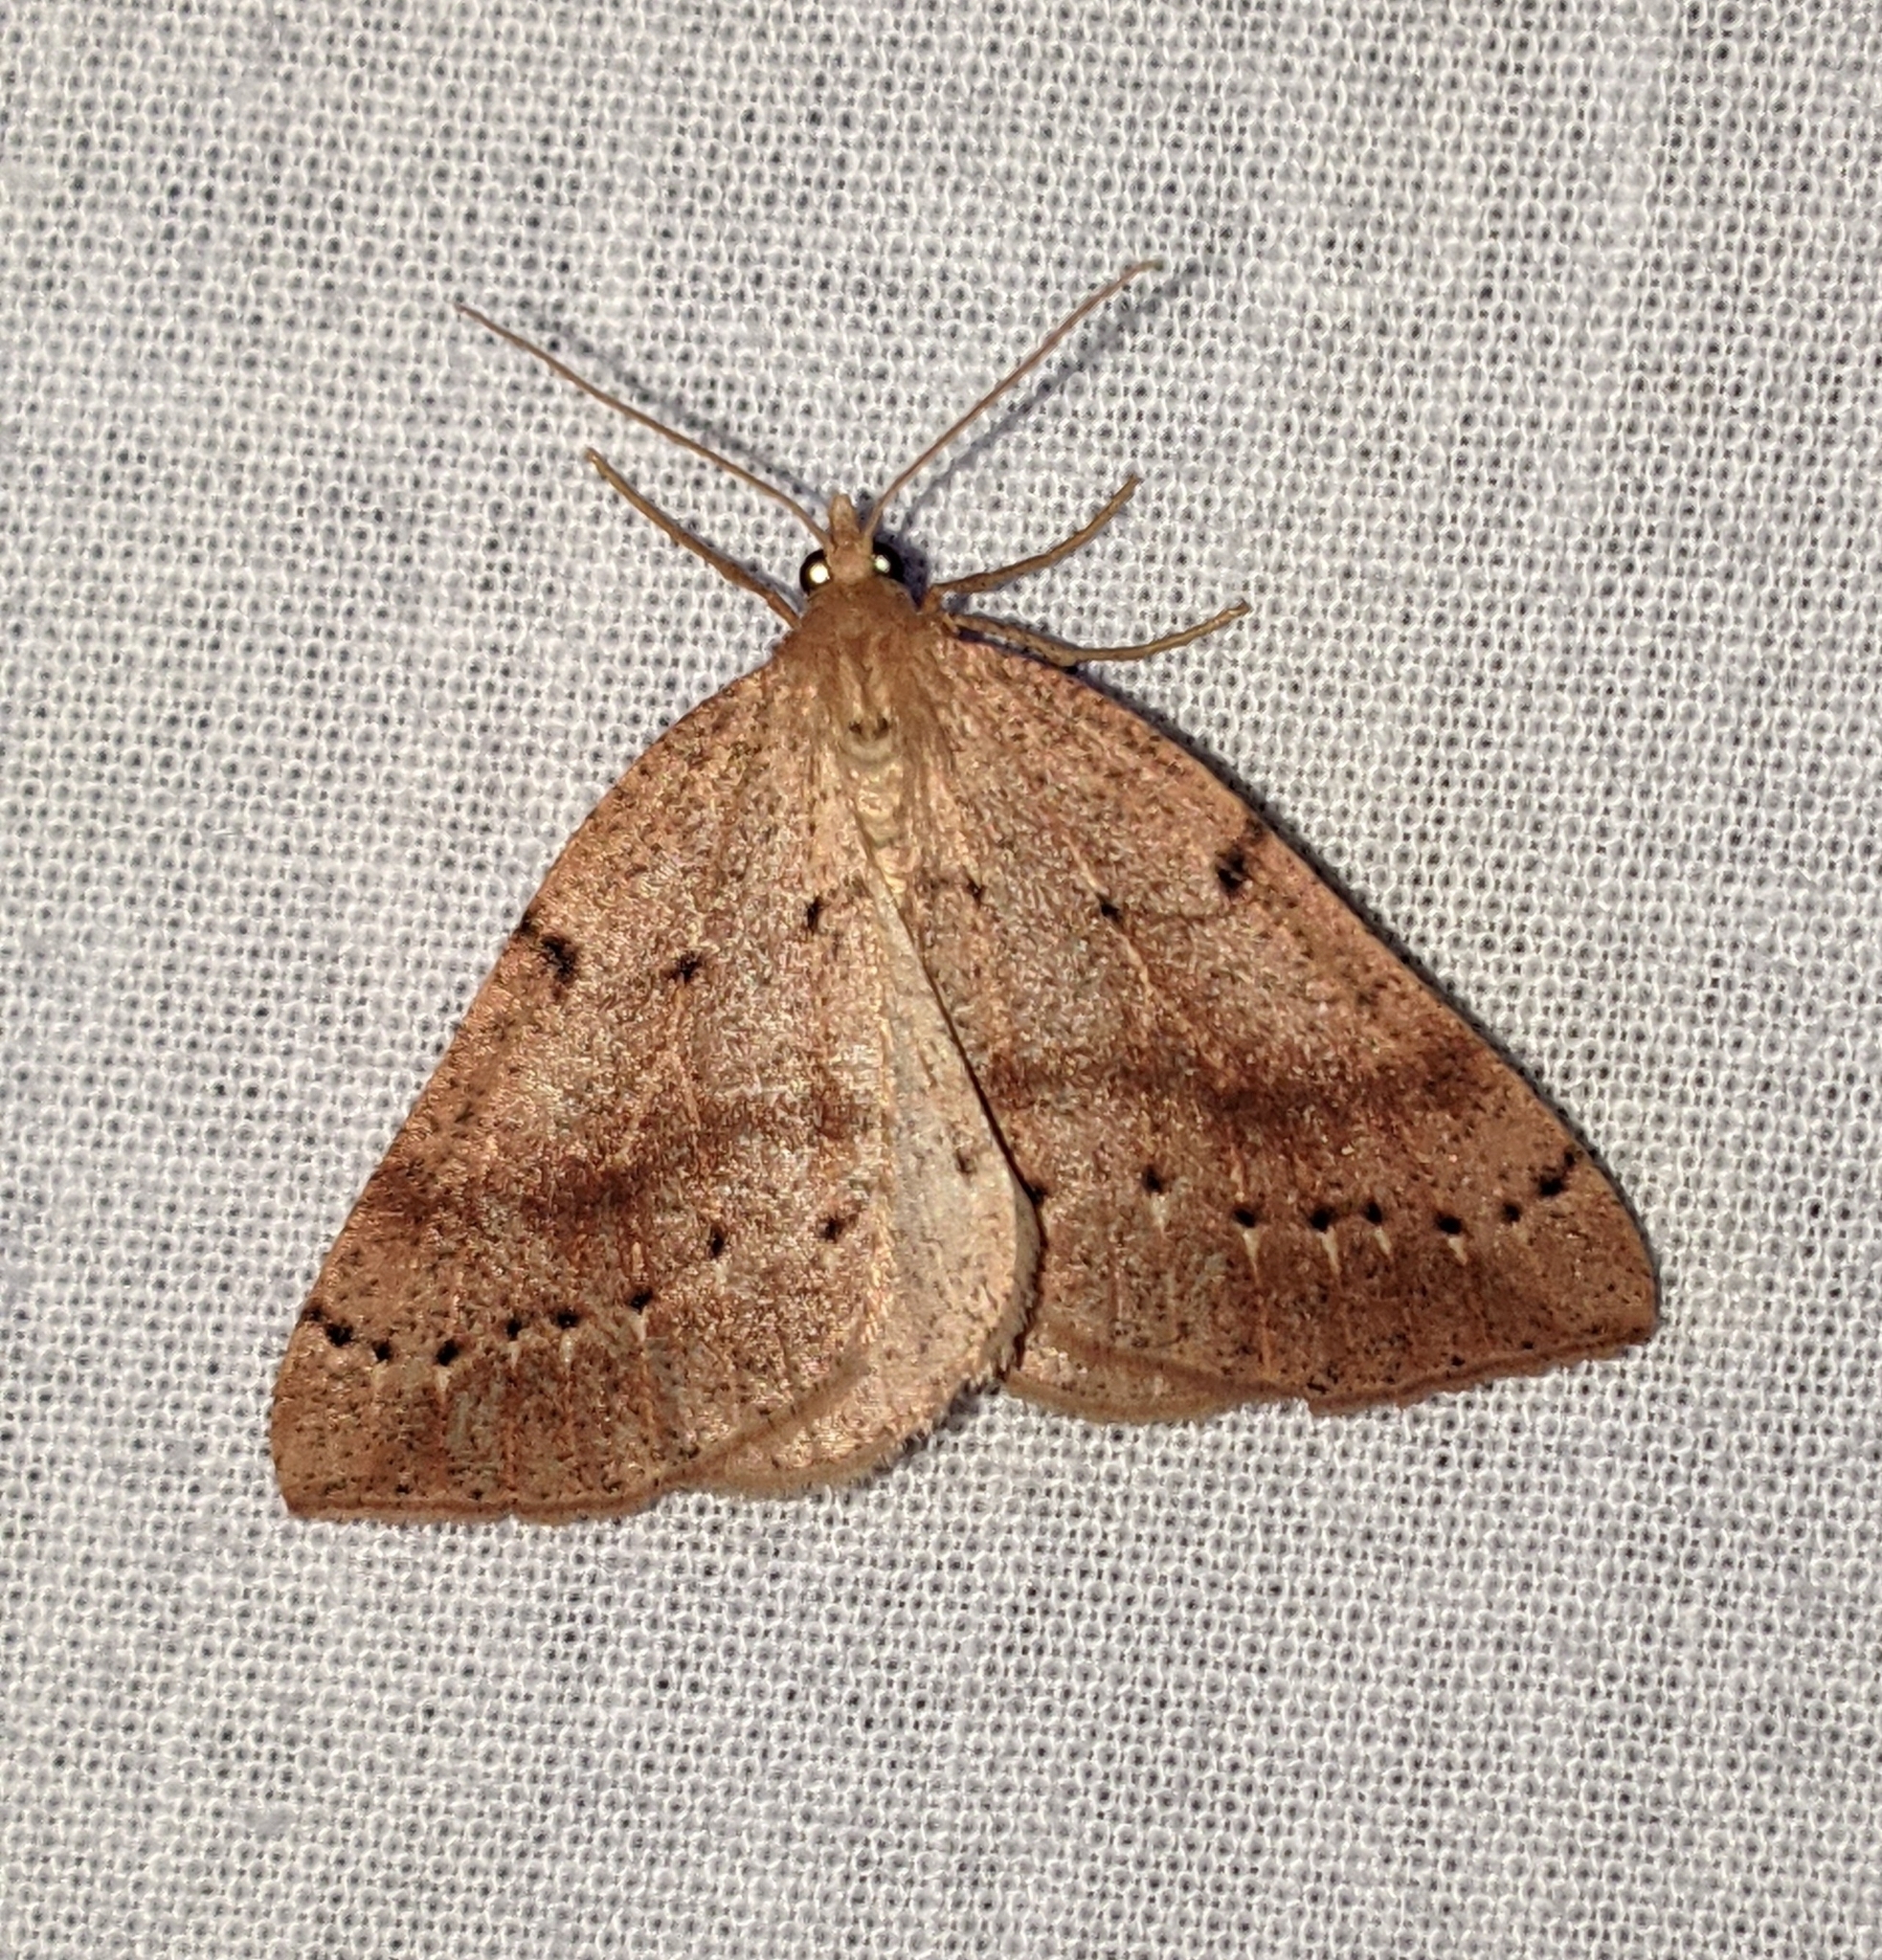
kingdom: Animalia
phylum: Arthropoda
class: Insecta
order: Lepidoptera
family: Geometridae
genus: Thallophaga
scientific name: Thallophaga hyperborea
